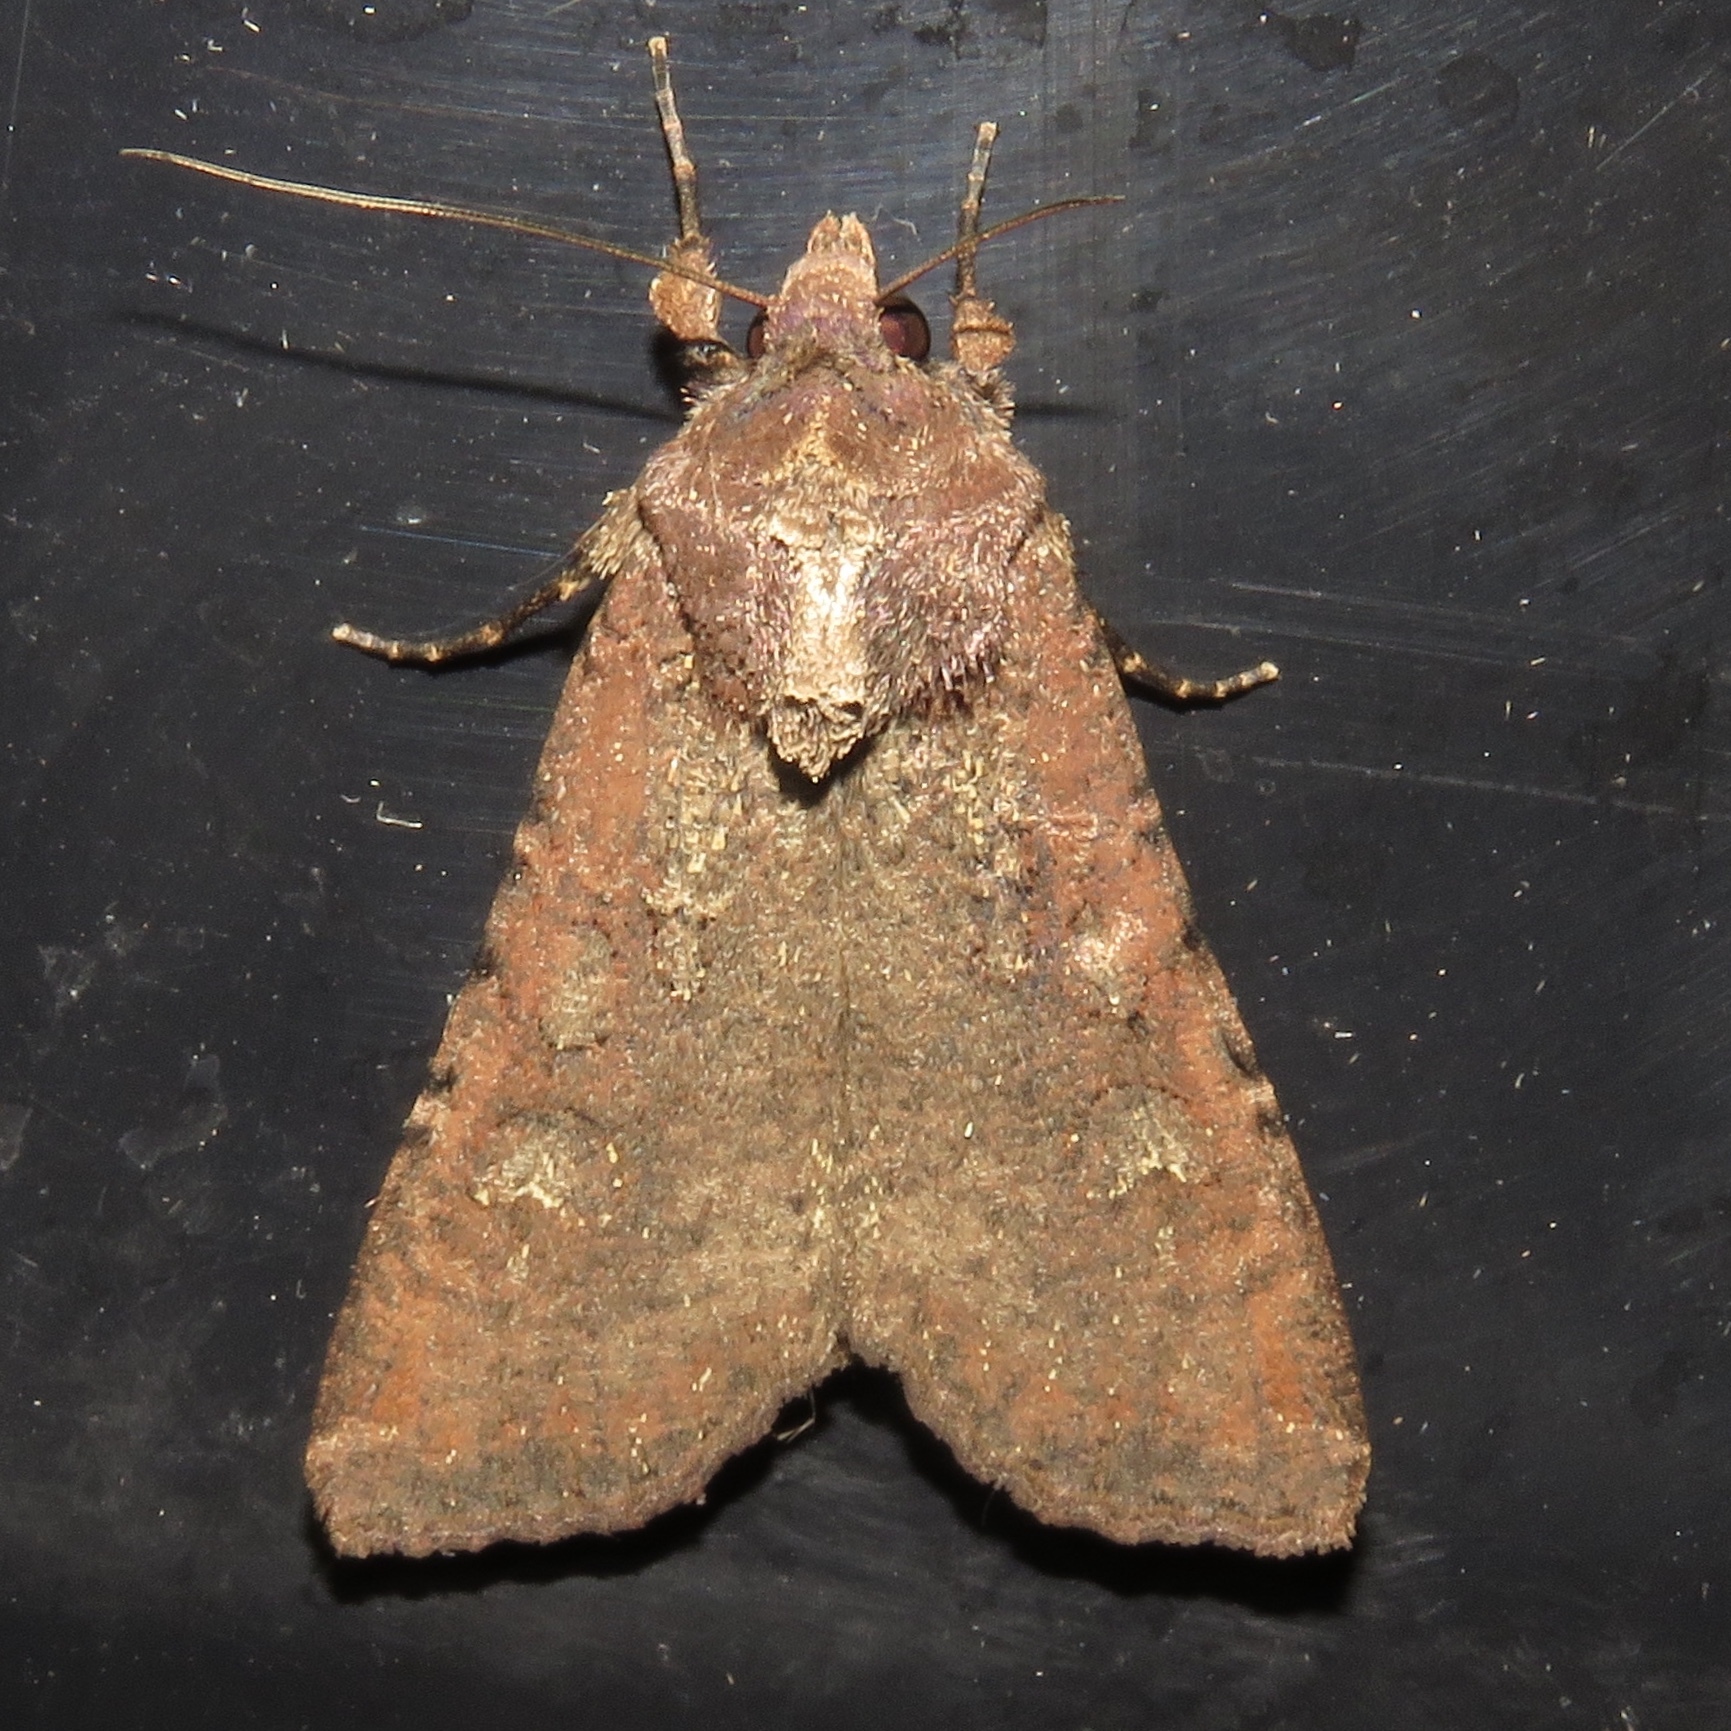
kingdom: Animalia
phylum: Arthropoda
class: Insecta
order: Lepidoptera
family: Noctuidae
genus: Peridroma
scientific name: Peridroma saucia
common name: Pearly underwing
